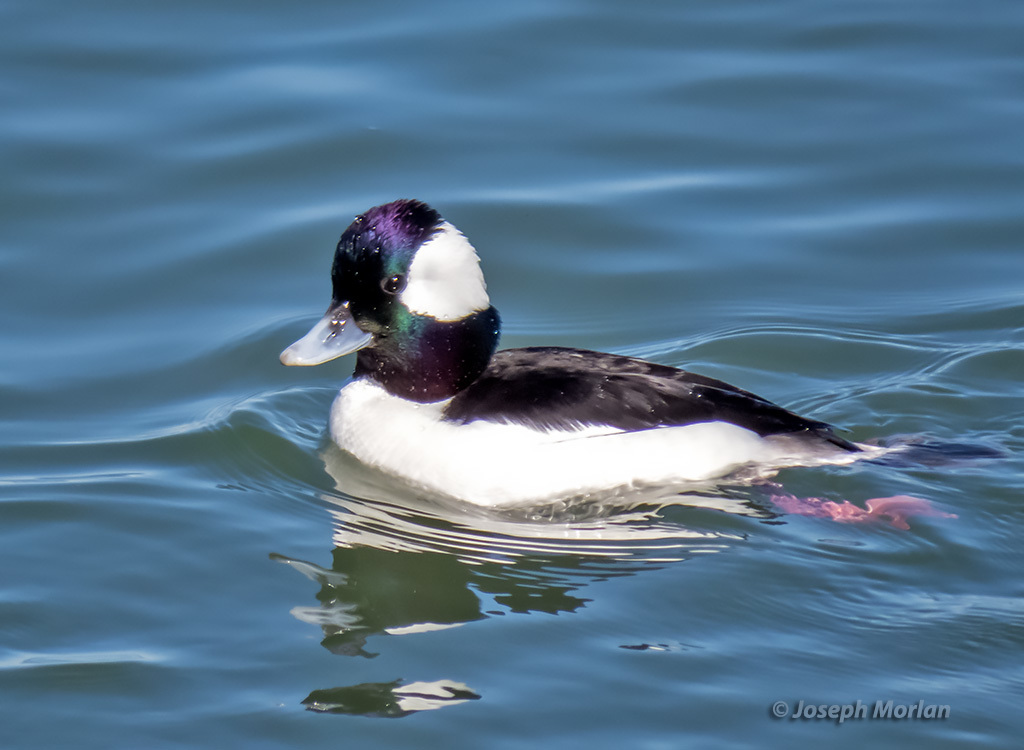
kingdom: Animalia
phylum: Chordata
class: Aves
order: Anseriformes
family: Anatidae
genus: Bucephala
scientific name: Bucephala albeola
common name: Bufflehead
